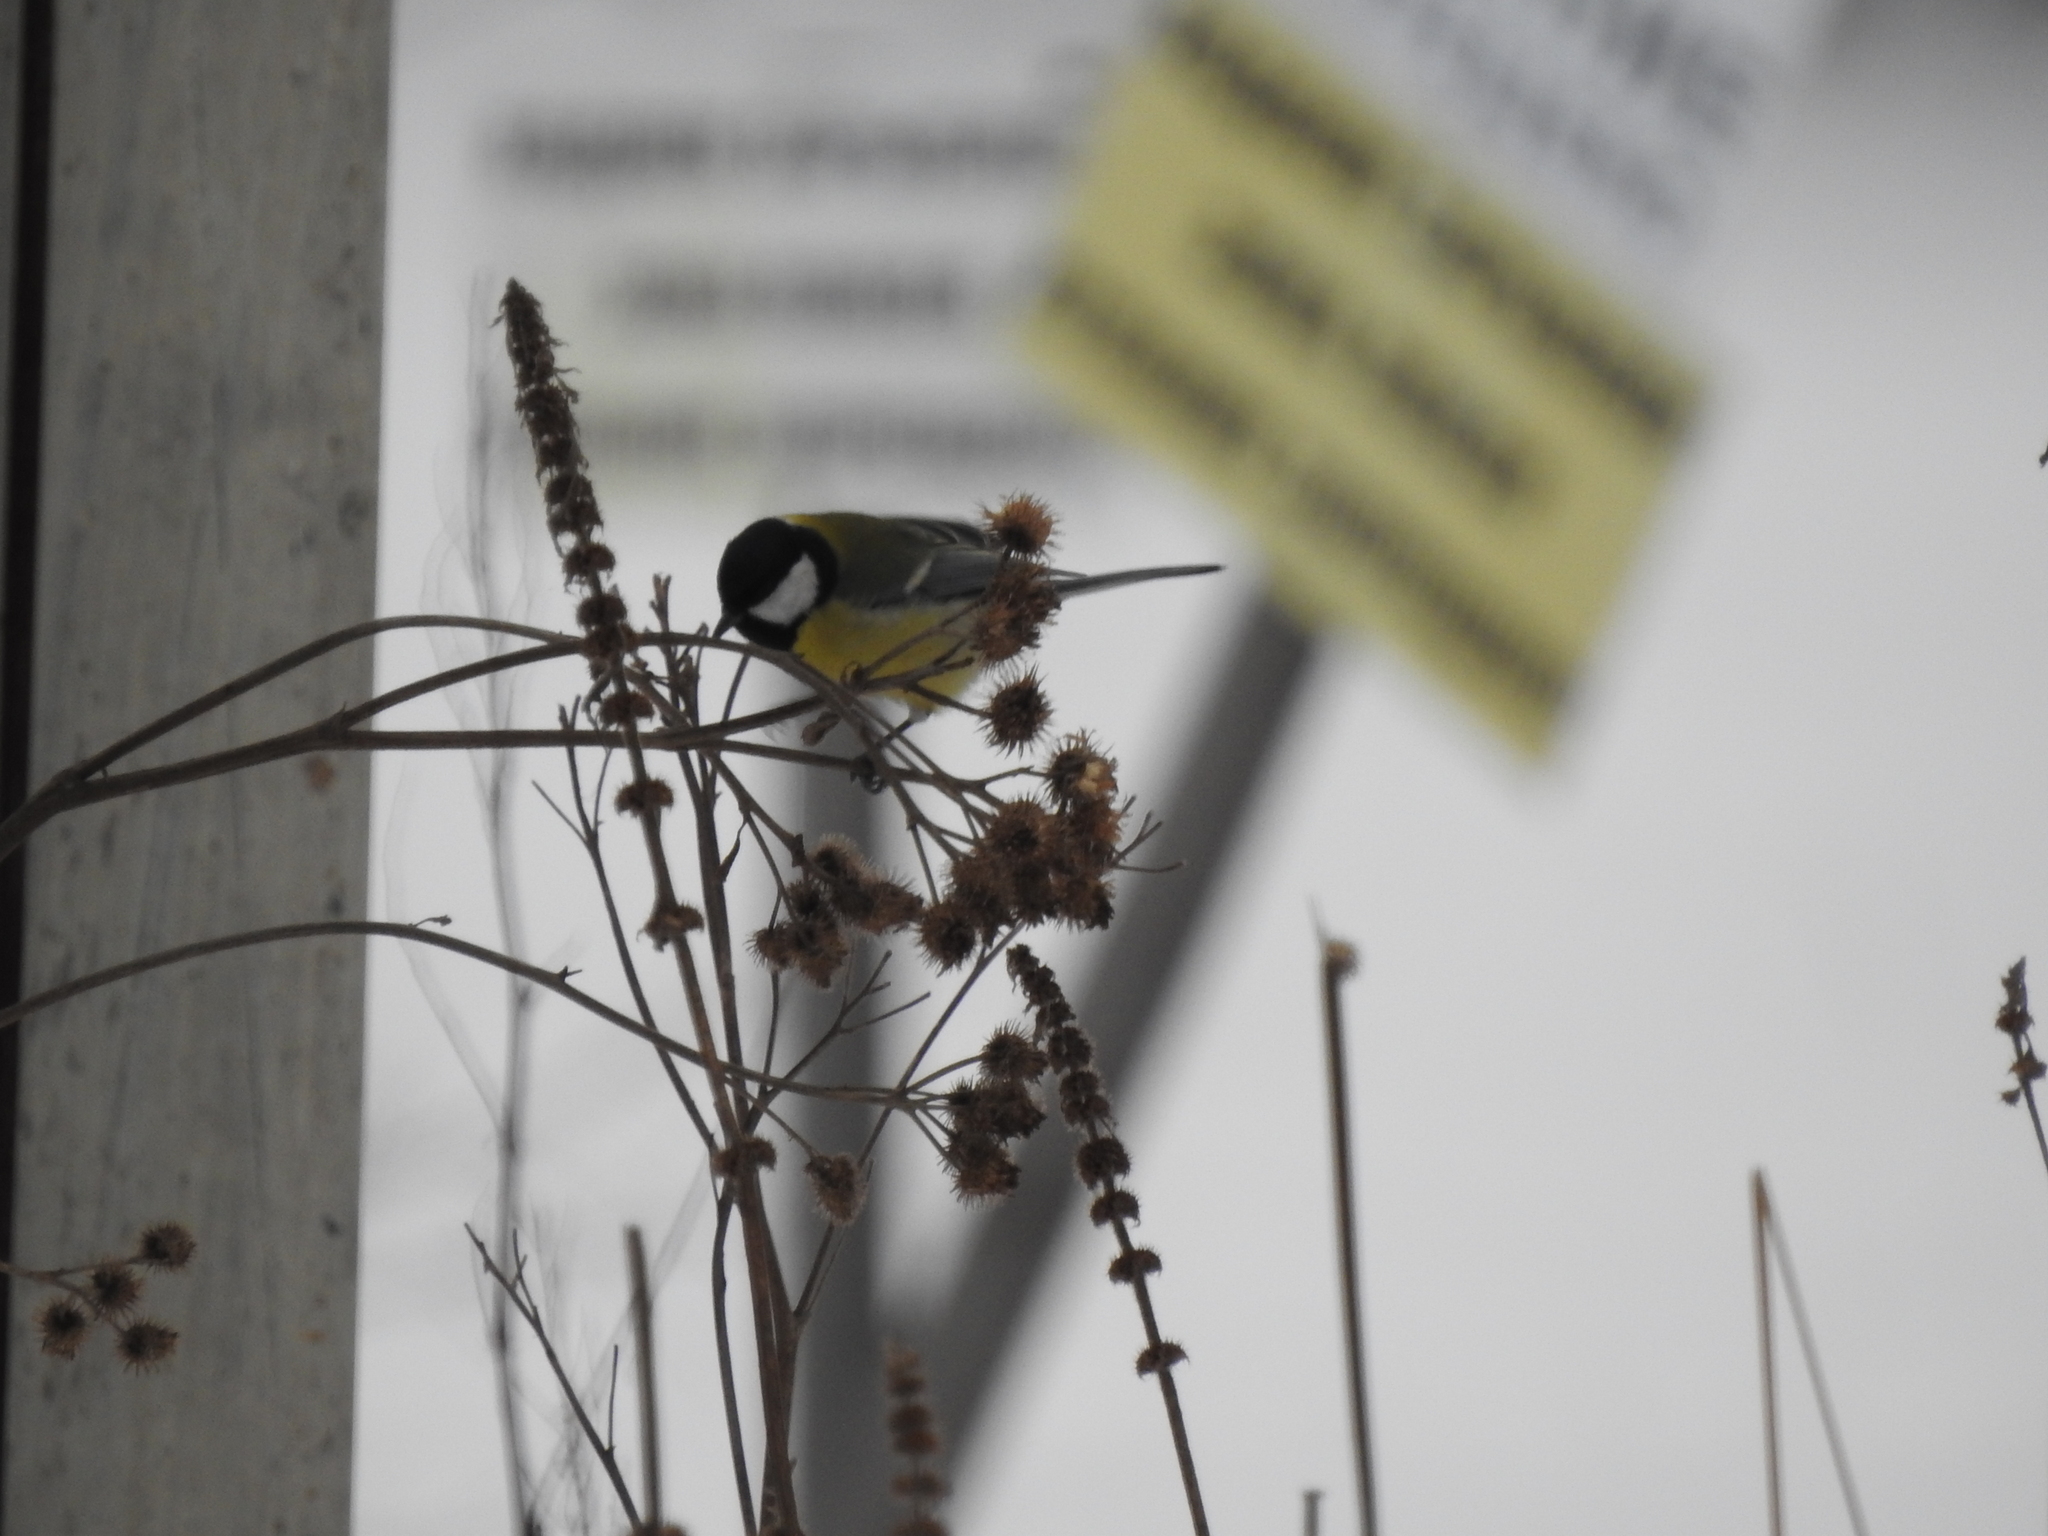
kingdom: Animalia
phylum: Chordata
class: Aves
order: Passeriformes
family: Paridae
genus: Parus
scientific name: Parus major
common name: Great tit
